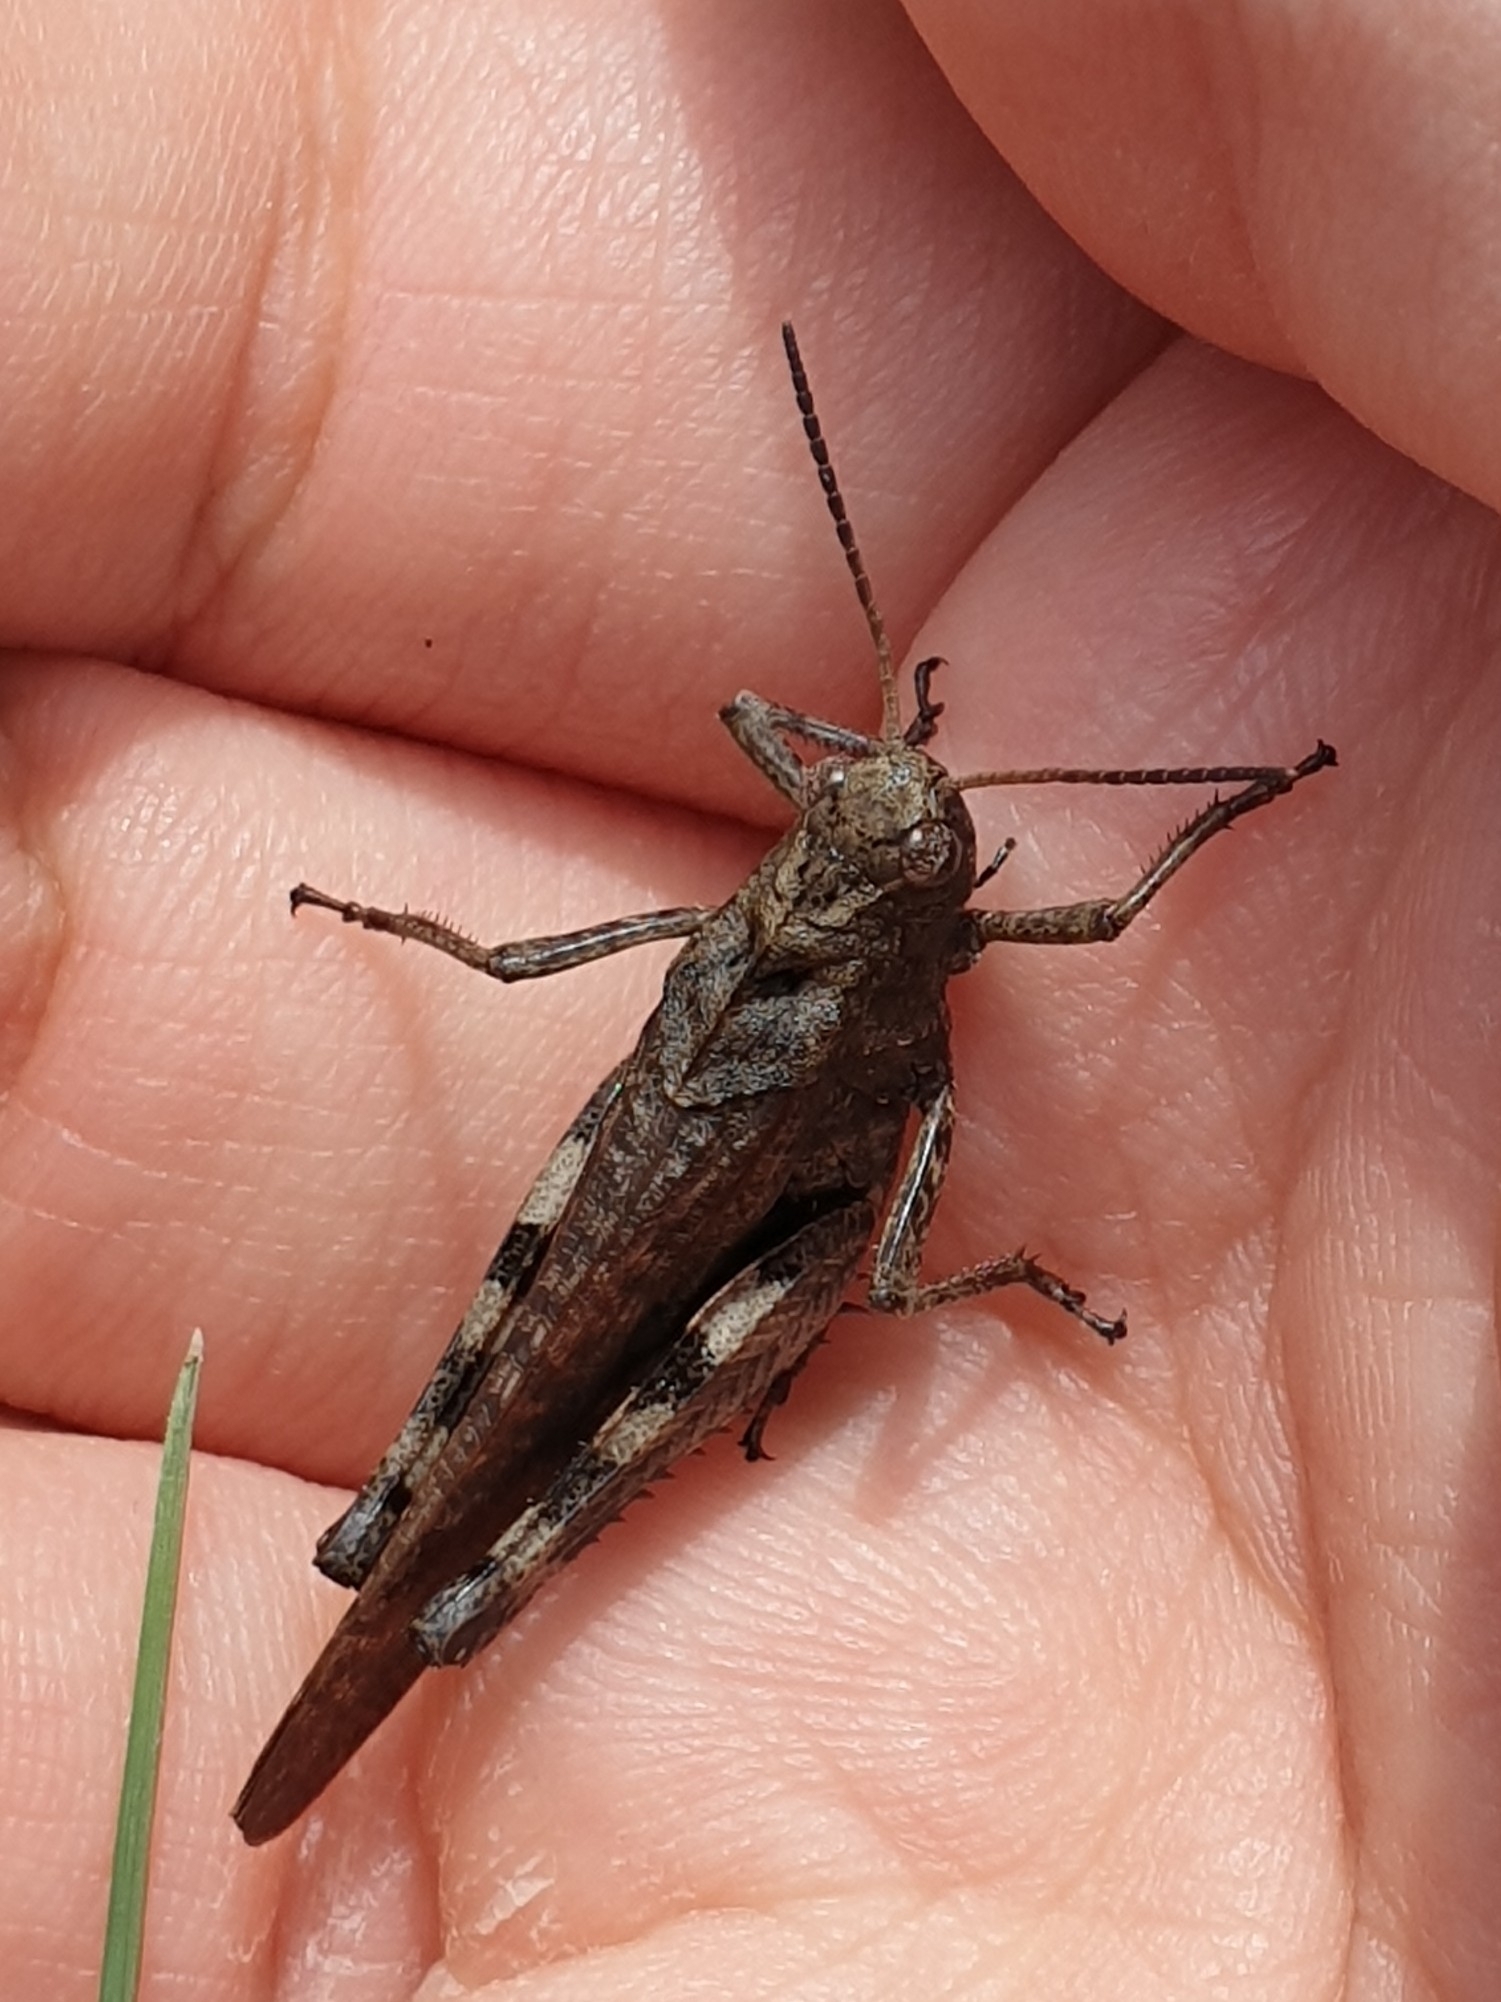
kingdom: Animalia
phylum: Arthropoda
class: Insecta
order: Orthoptera
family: Acrididae
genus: Psophus
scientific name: Psophus stridulus
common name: Rattle grasshopper
